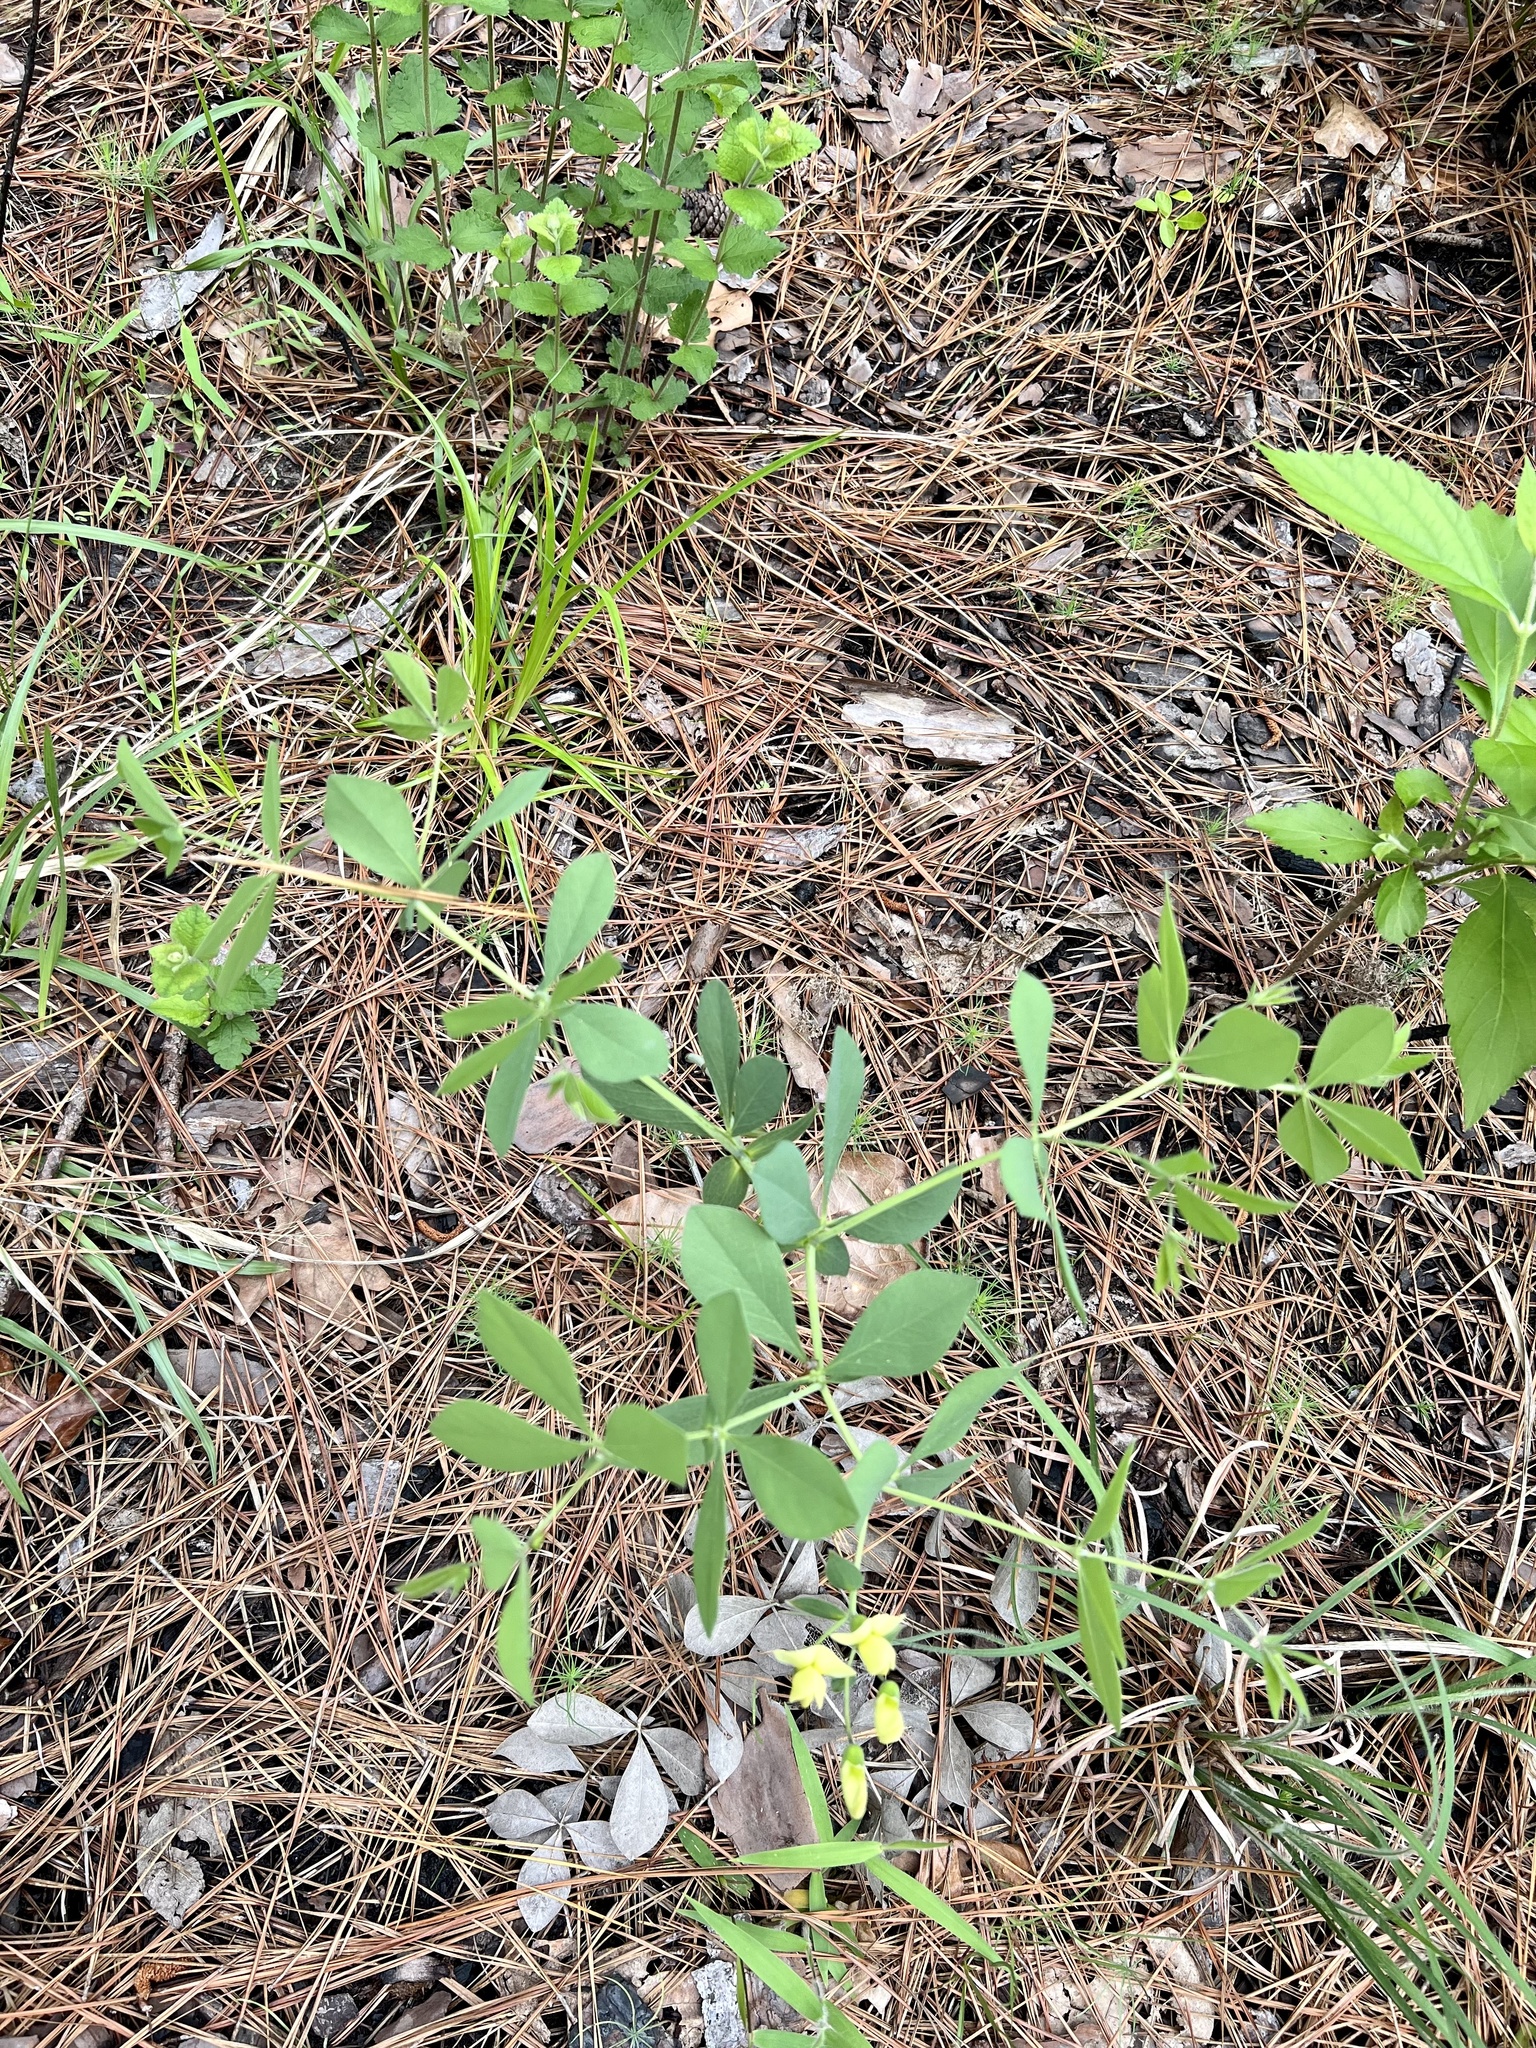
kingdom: Plantae
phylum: Tracheophyta
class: Magnoliopsida
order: Fabales
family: Fabaceae
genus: Baptisia
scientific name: Baptisia bracteata
